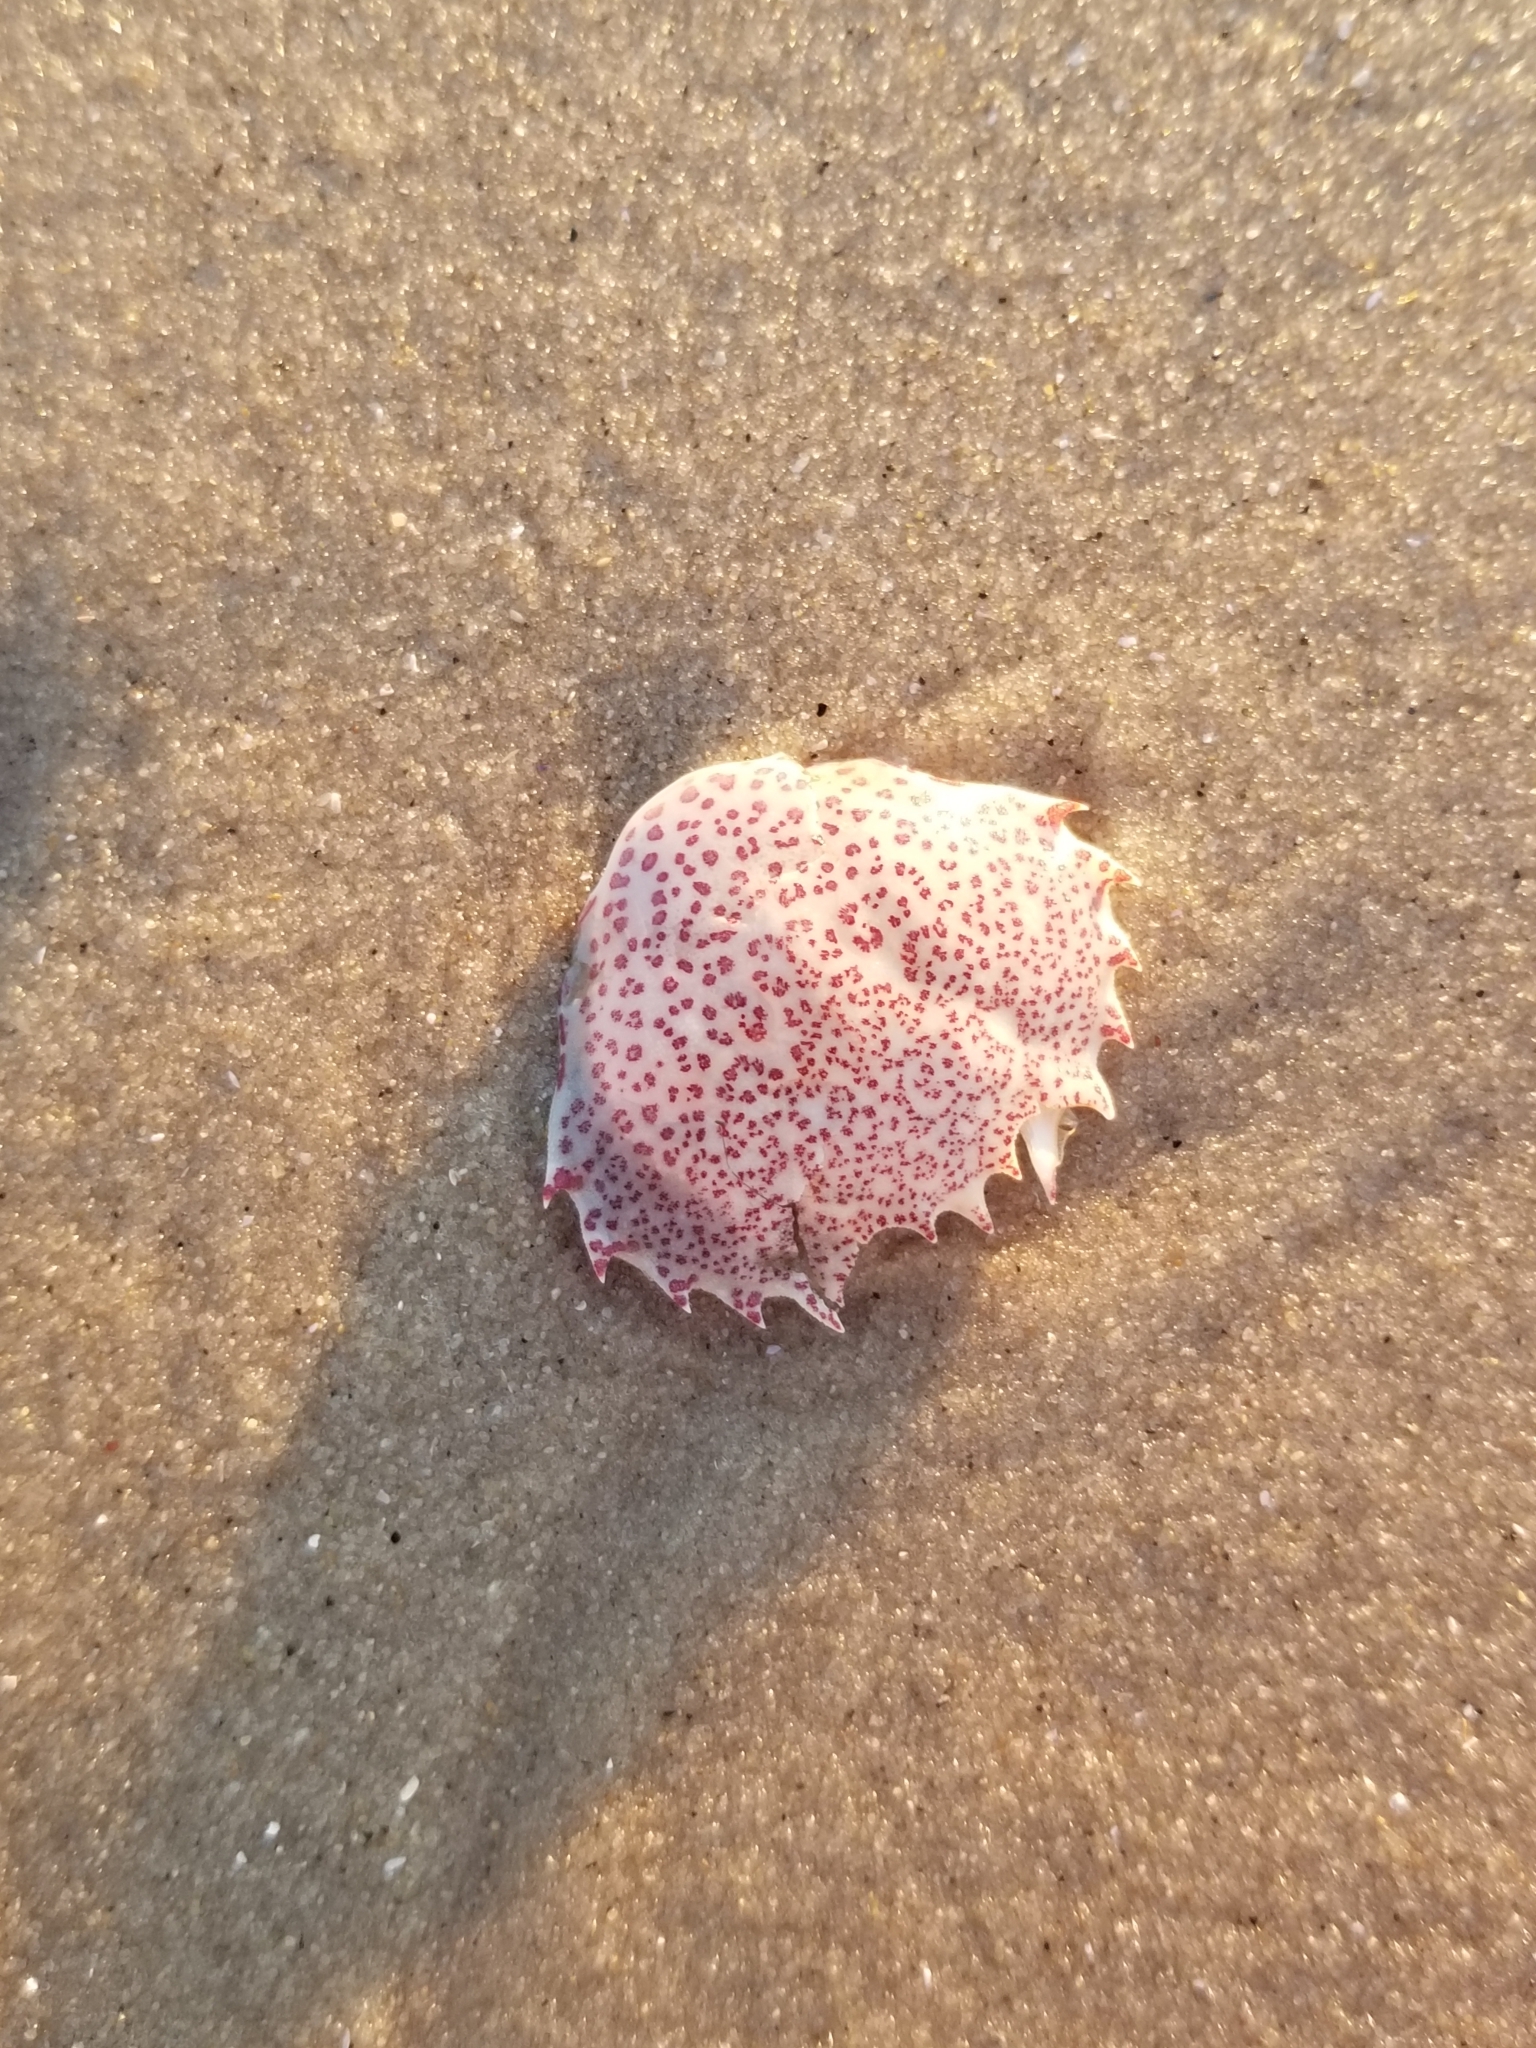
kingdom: Animalia
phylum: Arthropoda
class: Malacostraca
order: Decapoda
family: Ovalipidae
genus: Ovalipes
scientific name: Ovalipes ocellatus
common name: Lady crab
